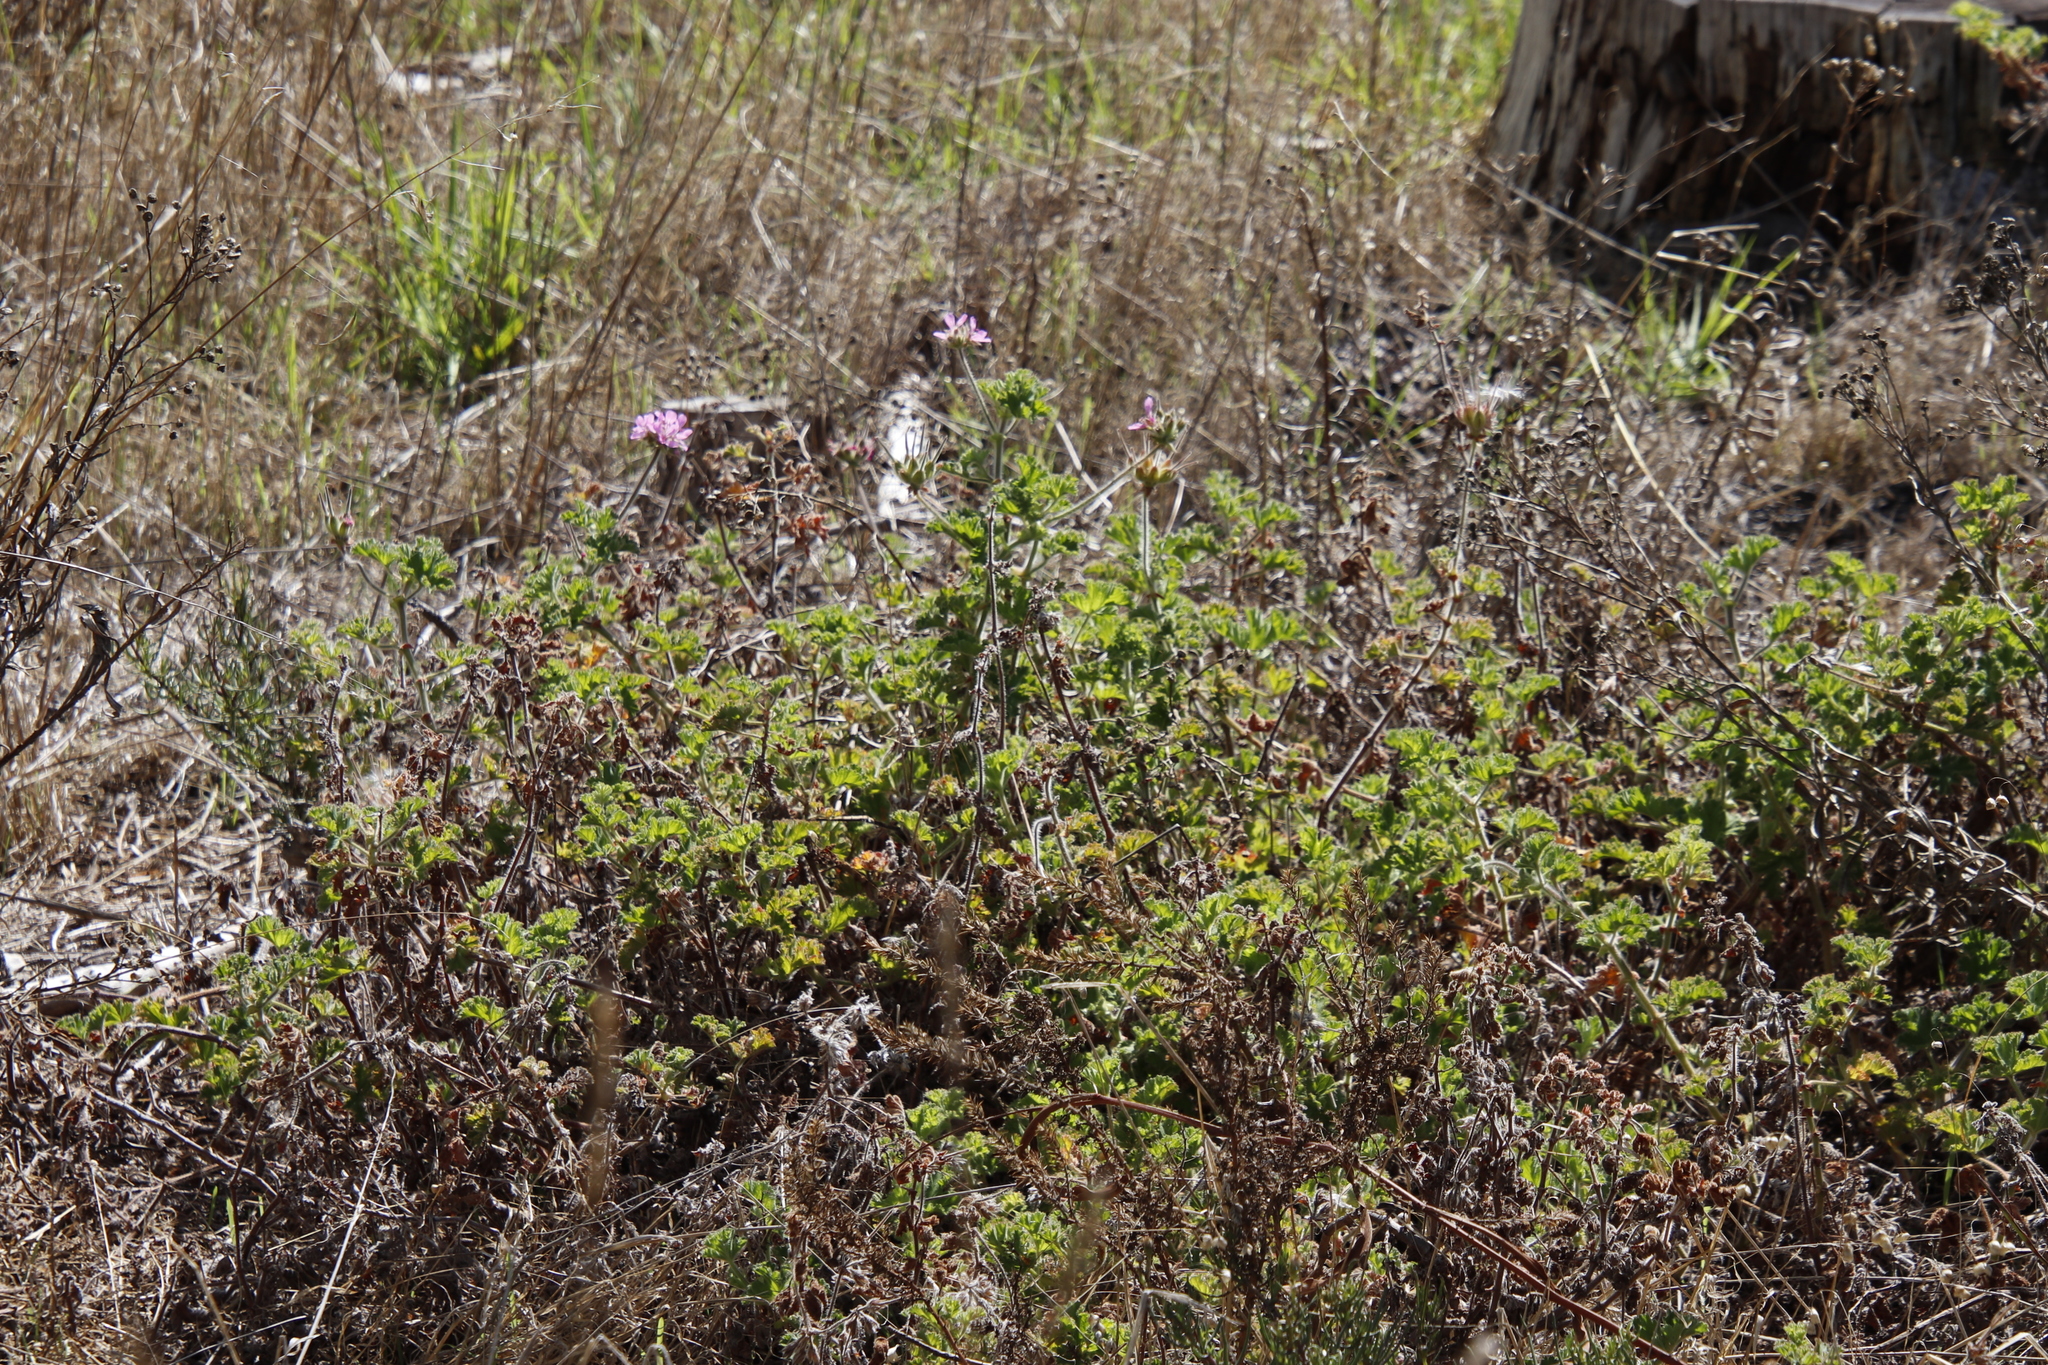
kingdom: Plantae
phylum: Tracheophyta
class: Magnoliopsida
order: Geraniales
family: Geraniaceae
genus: Pelargonium
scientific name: Pelargonium capitatum
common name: Rose scented geranium
